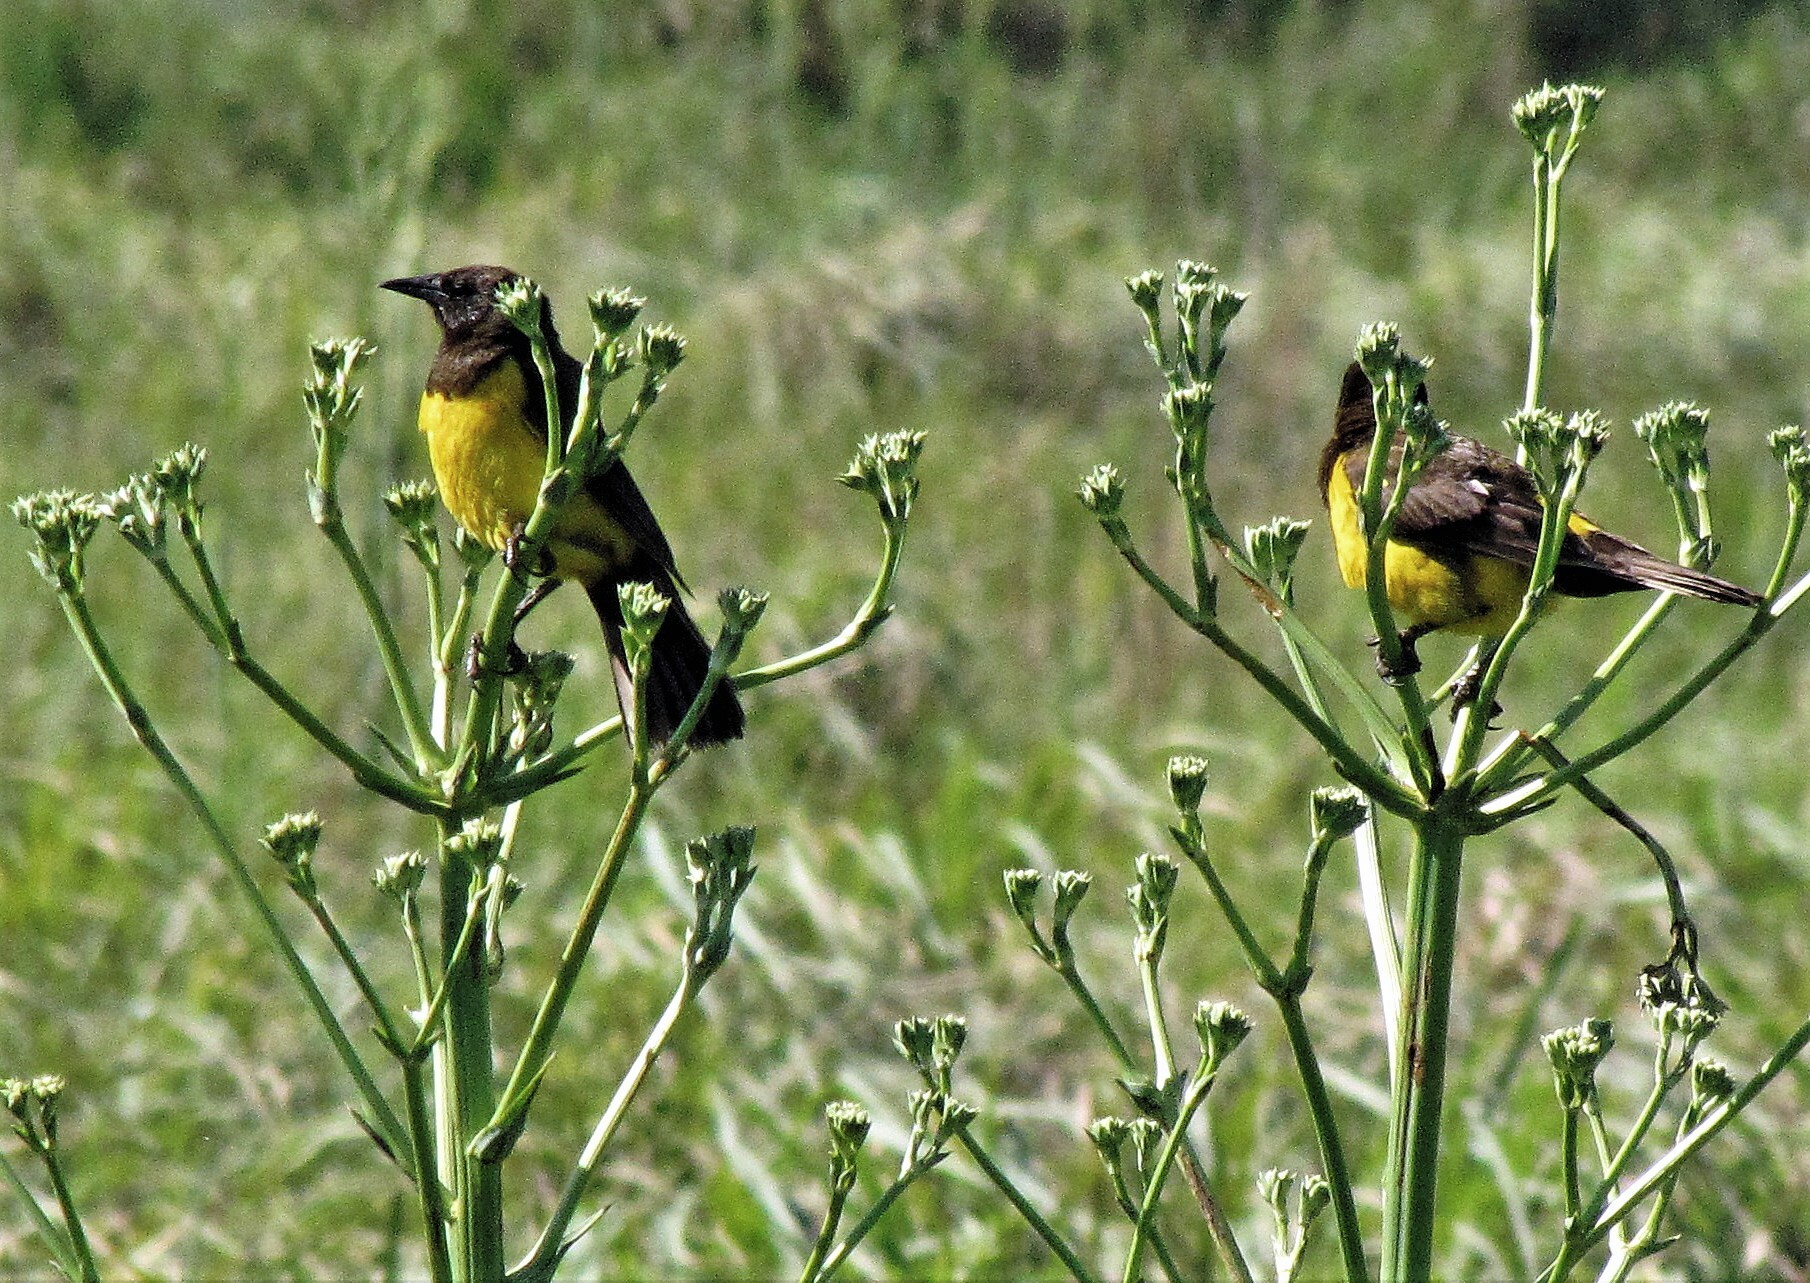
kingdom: Animalia
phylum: Chordata
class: Aves
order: Passeriformes
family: Icteridae
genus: Pseudoleistes
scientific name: Pseudoleistes guirahuro
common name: Yellow-rumped marshbird
